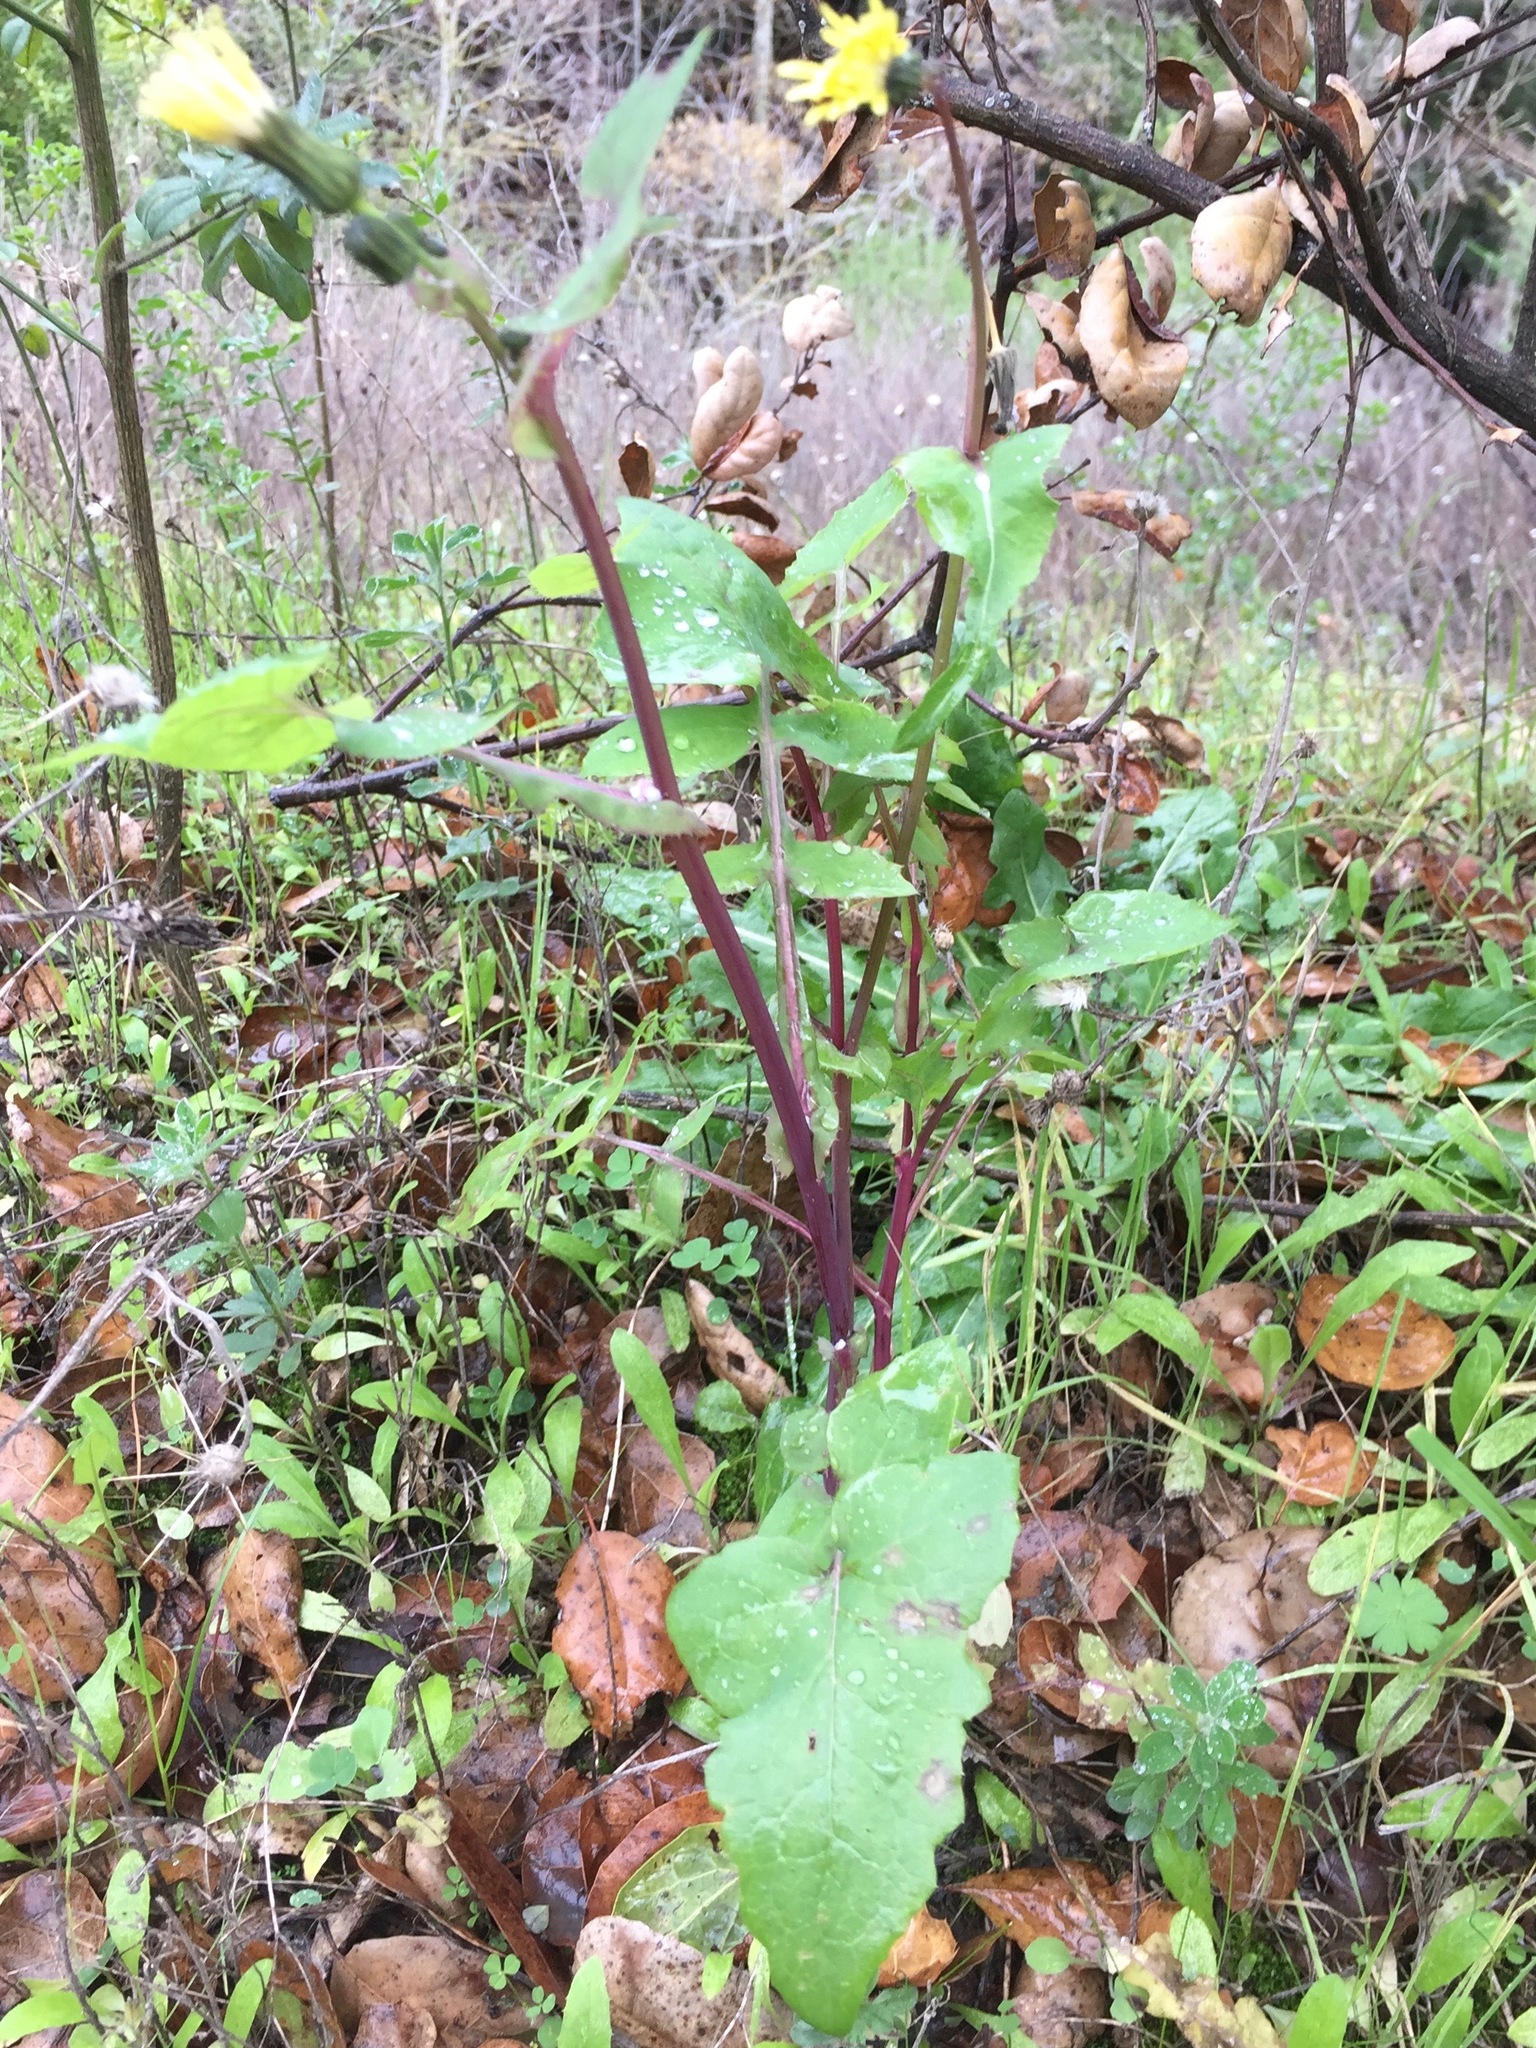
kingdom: Plantae
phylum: Tracheophyta
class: Magnoliopsida
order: Asterales
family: Asteraceae
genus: Sonchus
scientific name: Sonchus oleraceus
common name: Common sowthistle
